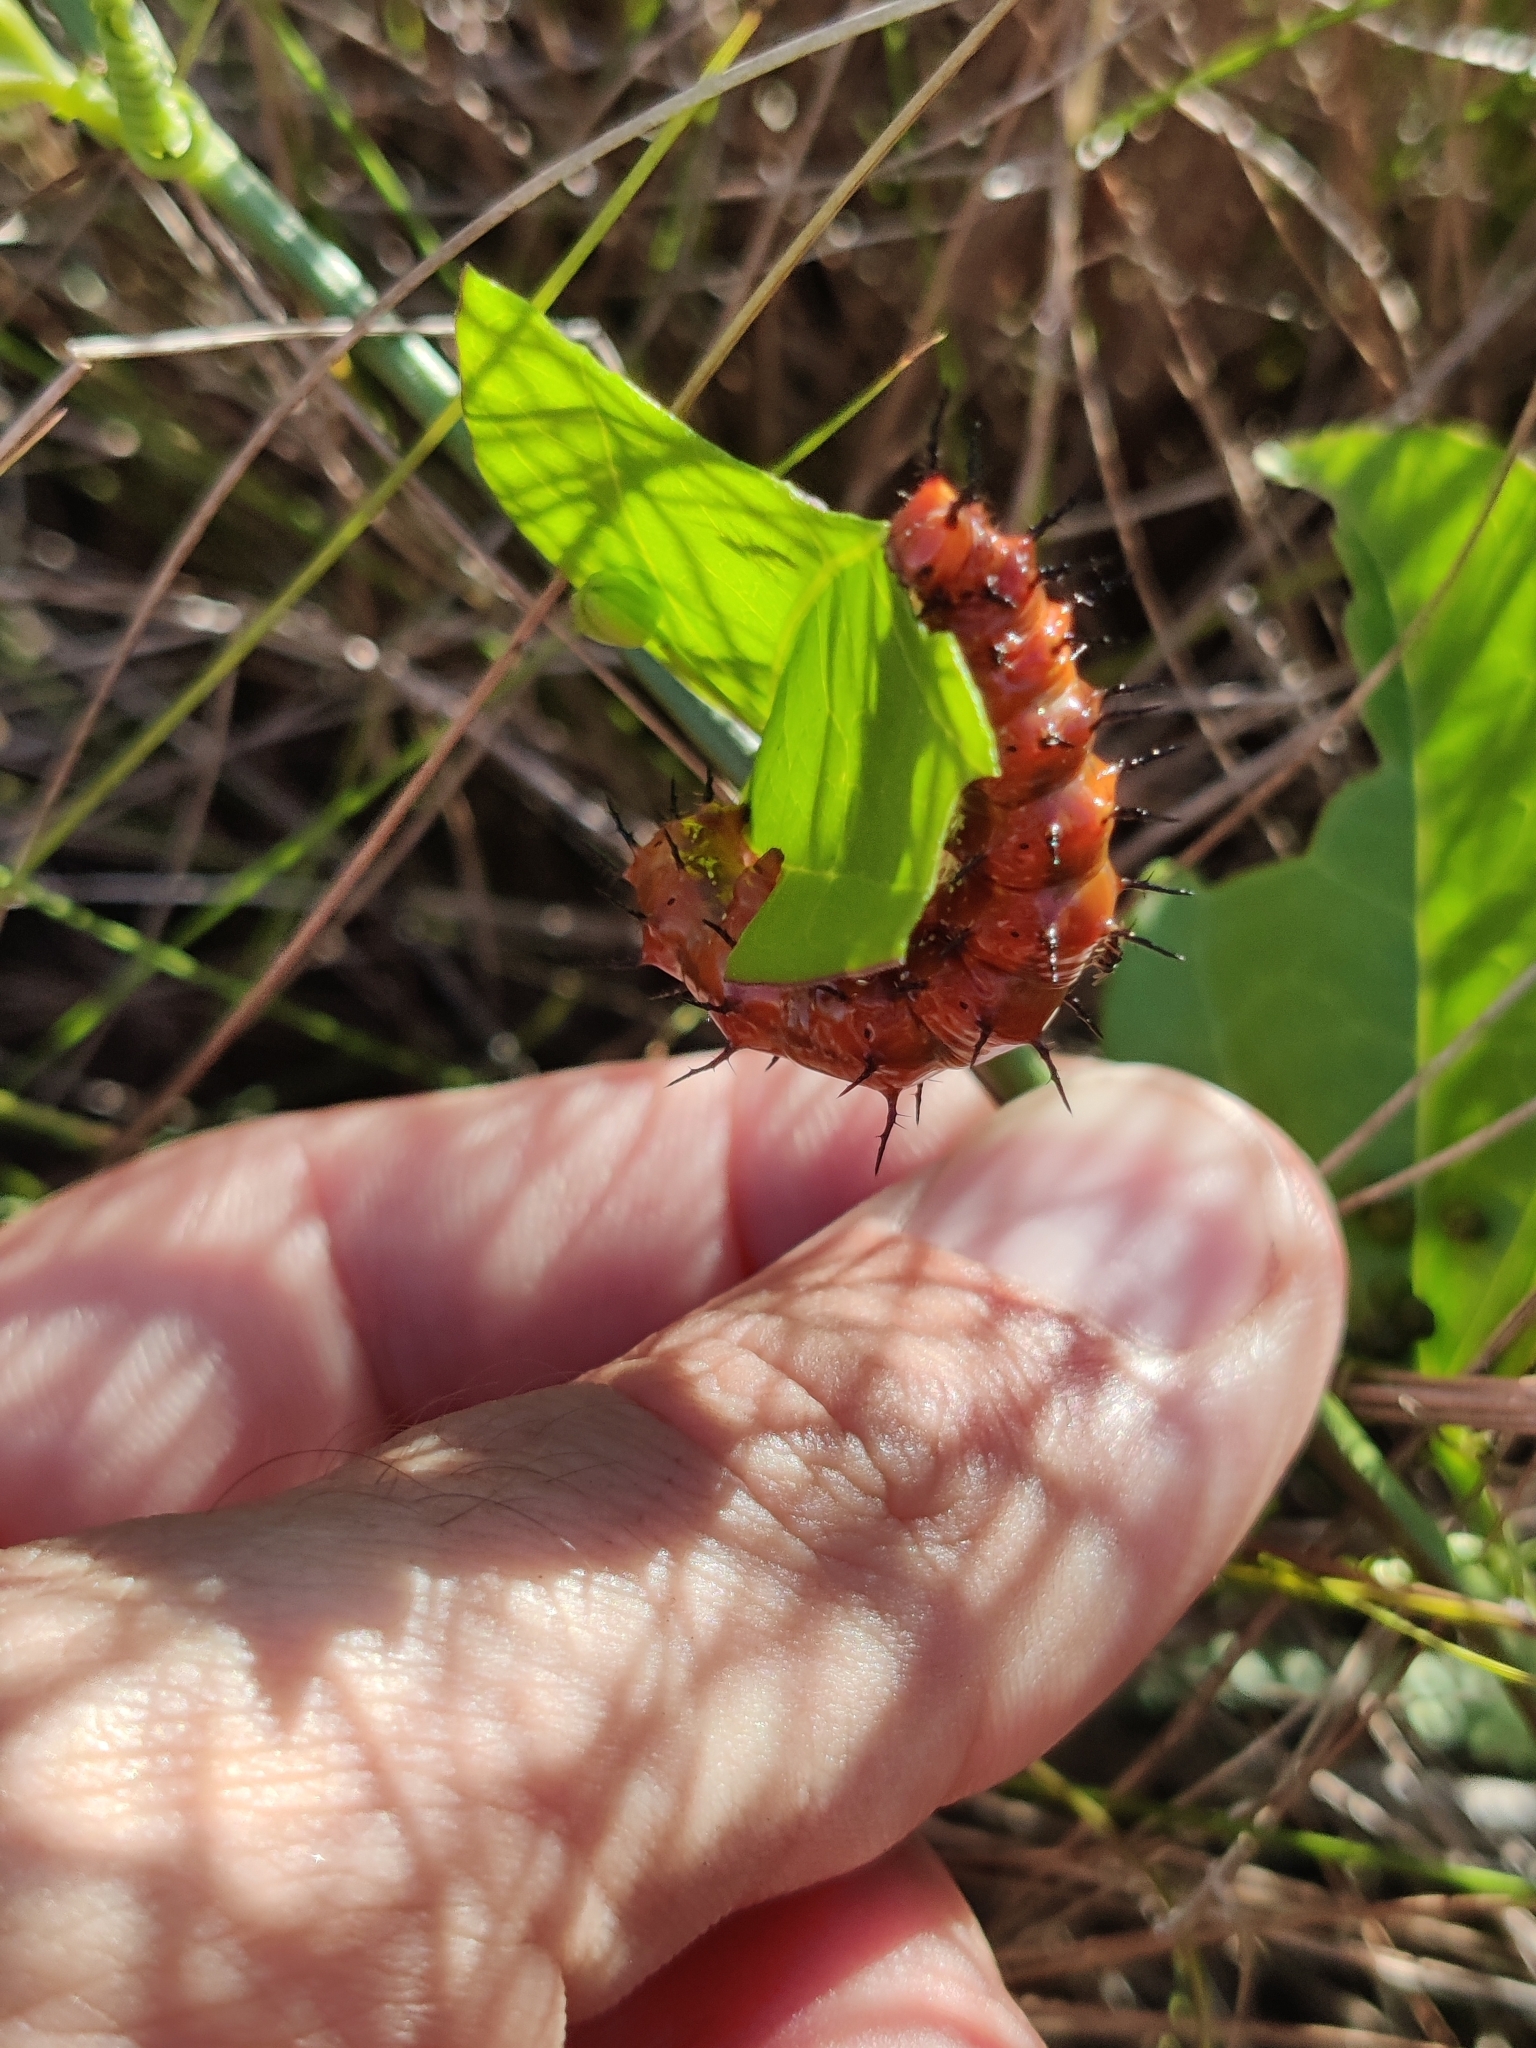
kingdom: Plantae
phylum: Tracheophyta
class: Magnoliopsida
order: Malpighiales
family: Passifloraceae
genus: Passiflora
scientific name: Passiflora pallida
